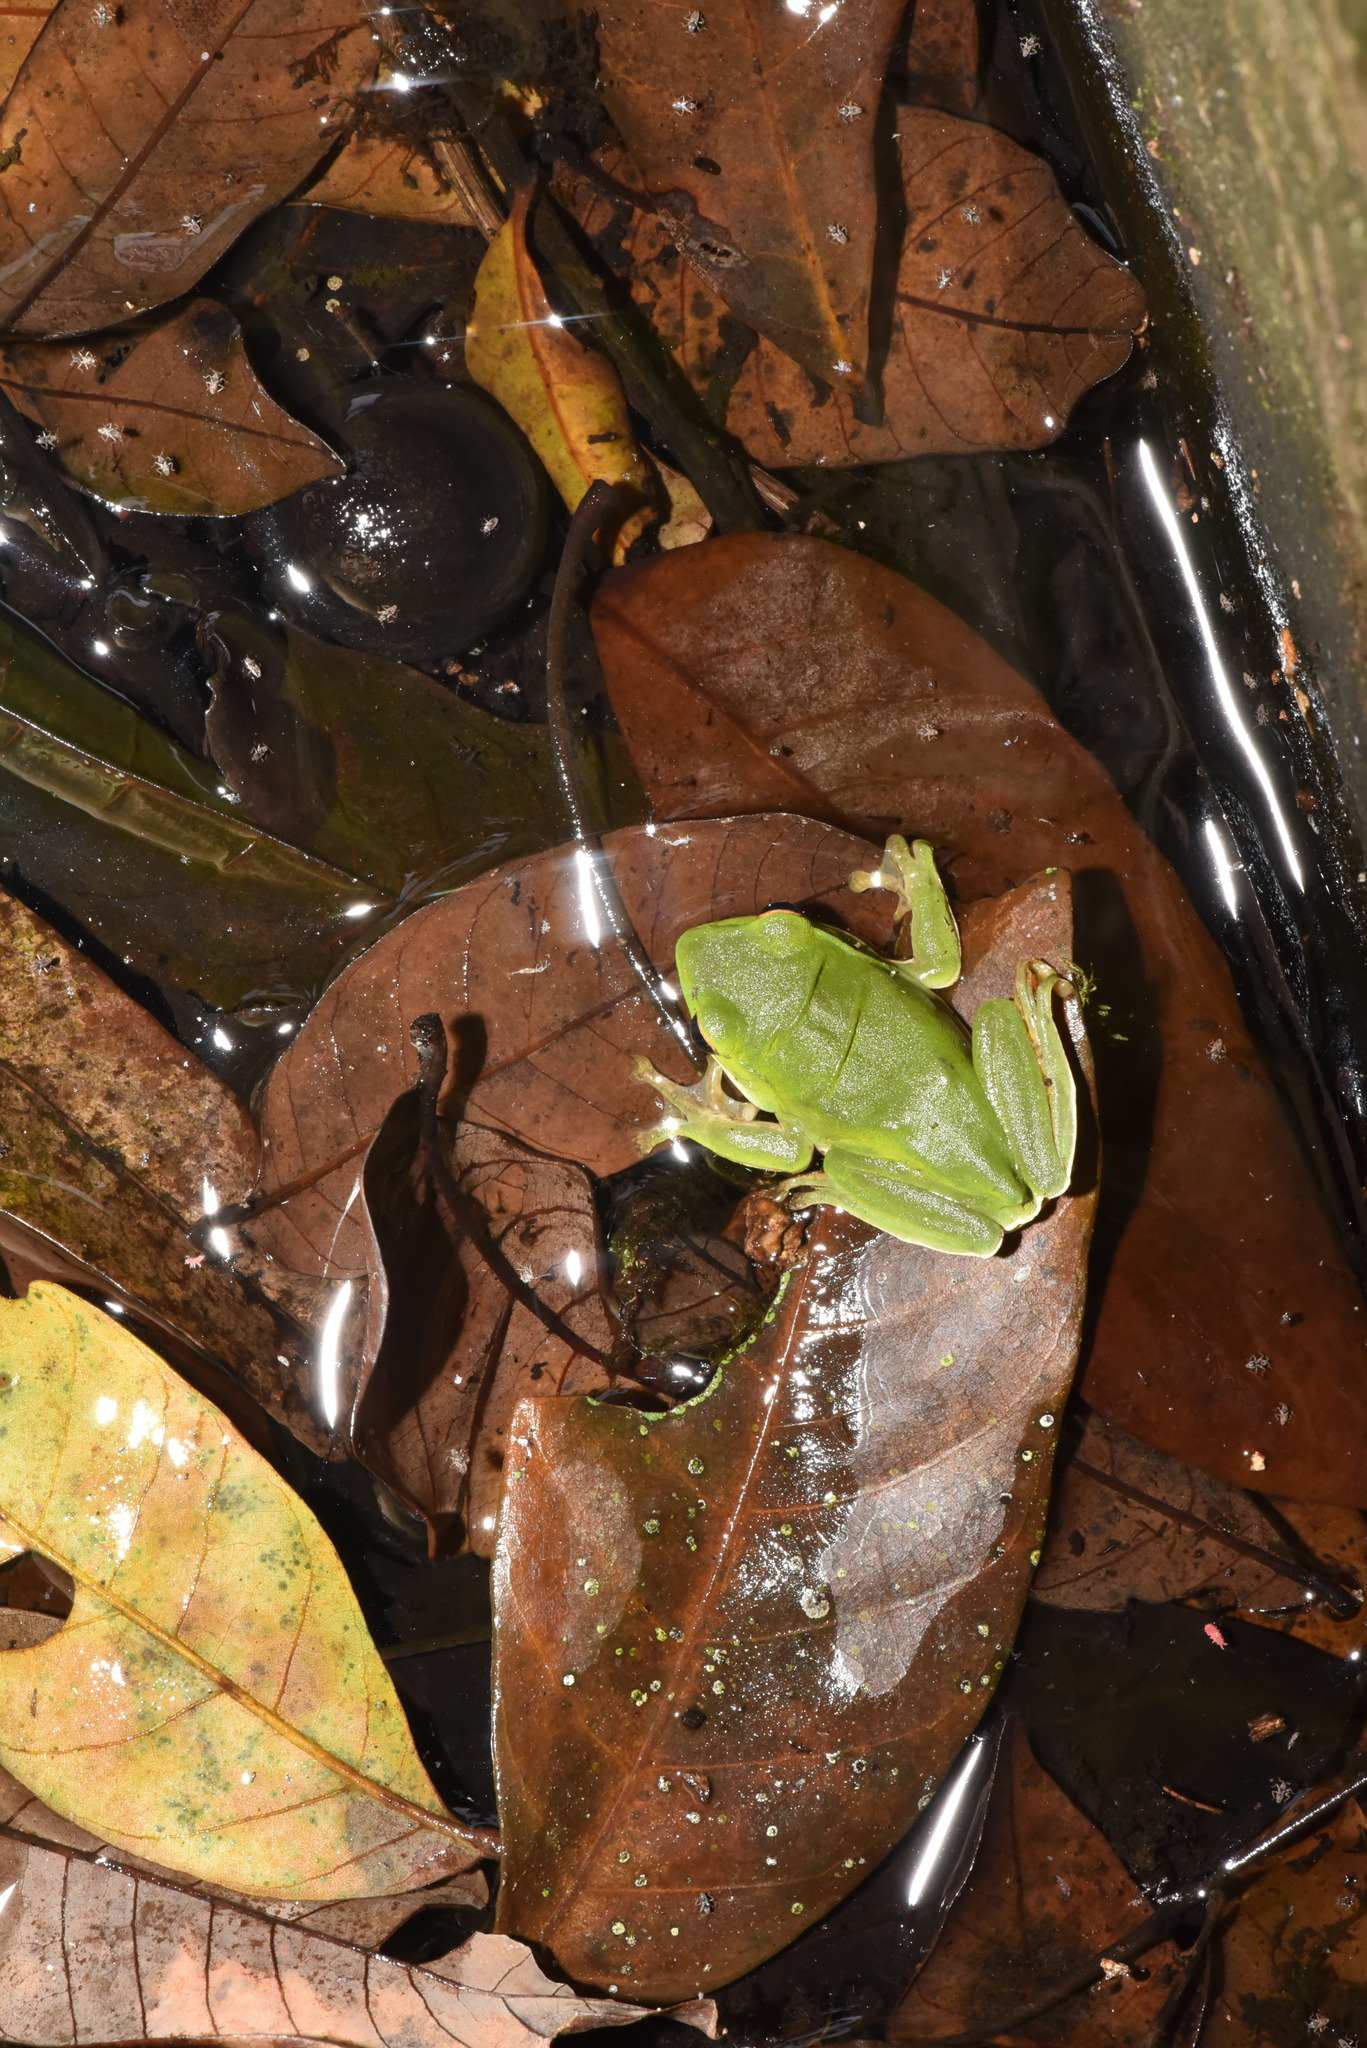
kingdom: Animalia
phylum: Chordata
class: Amphibia
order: Anura
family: Rhacophoridae
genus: Zhangixalus
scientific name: Zhangixalus moltrechti
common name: Moltrecht's treefrog
